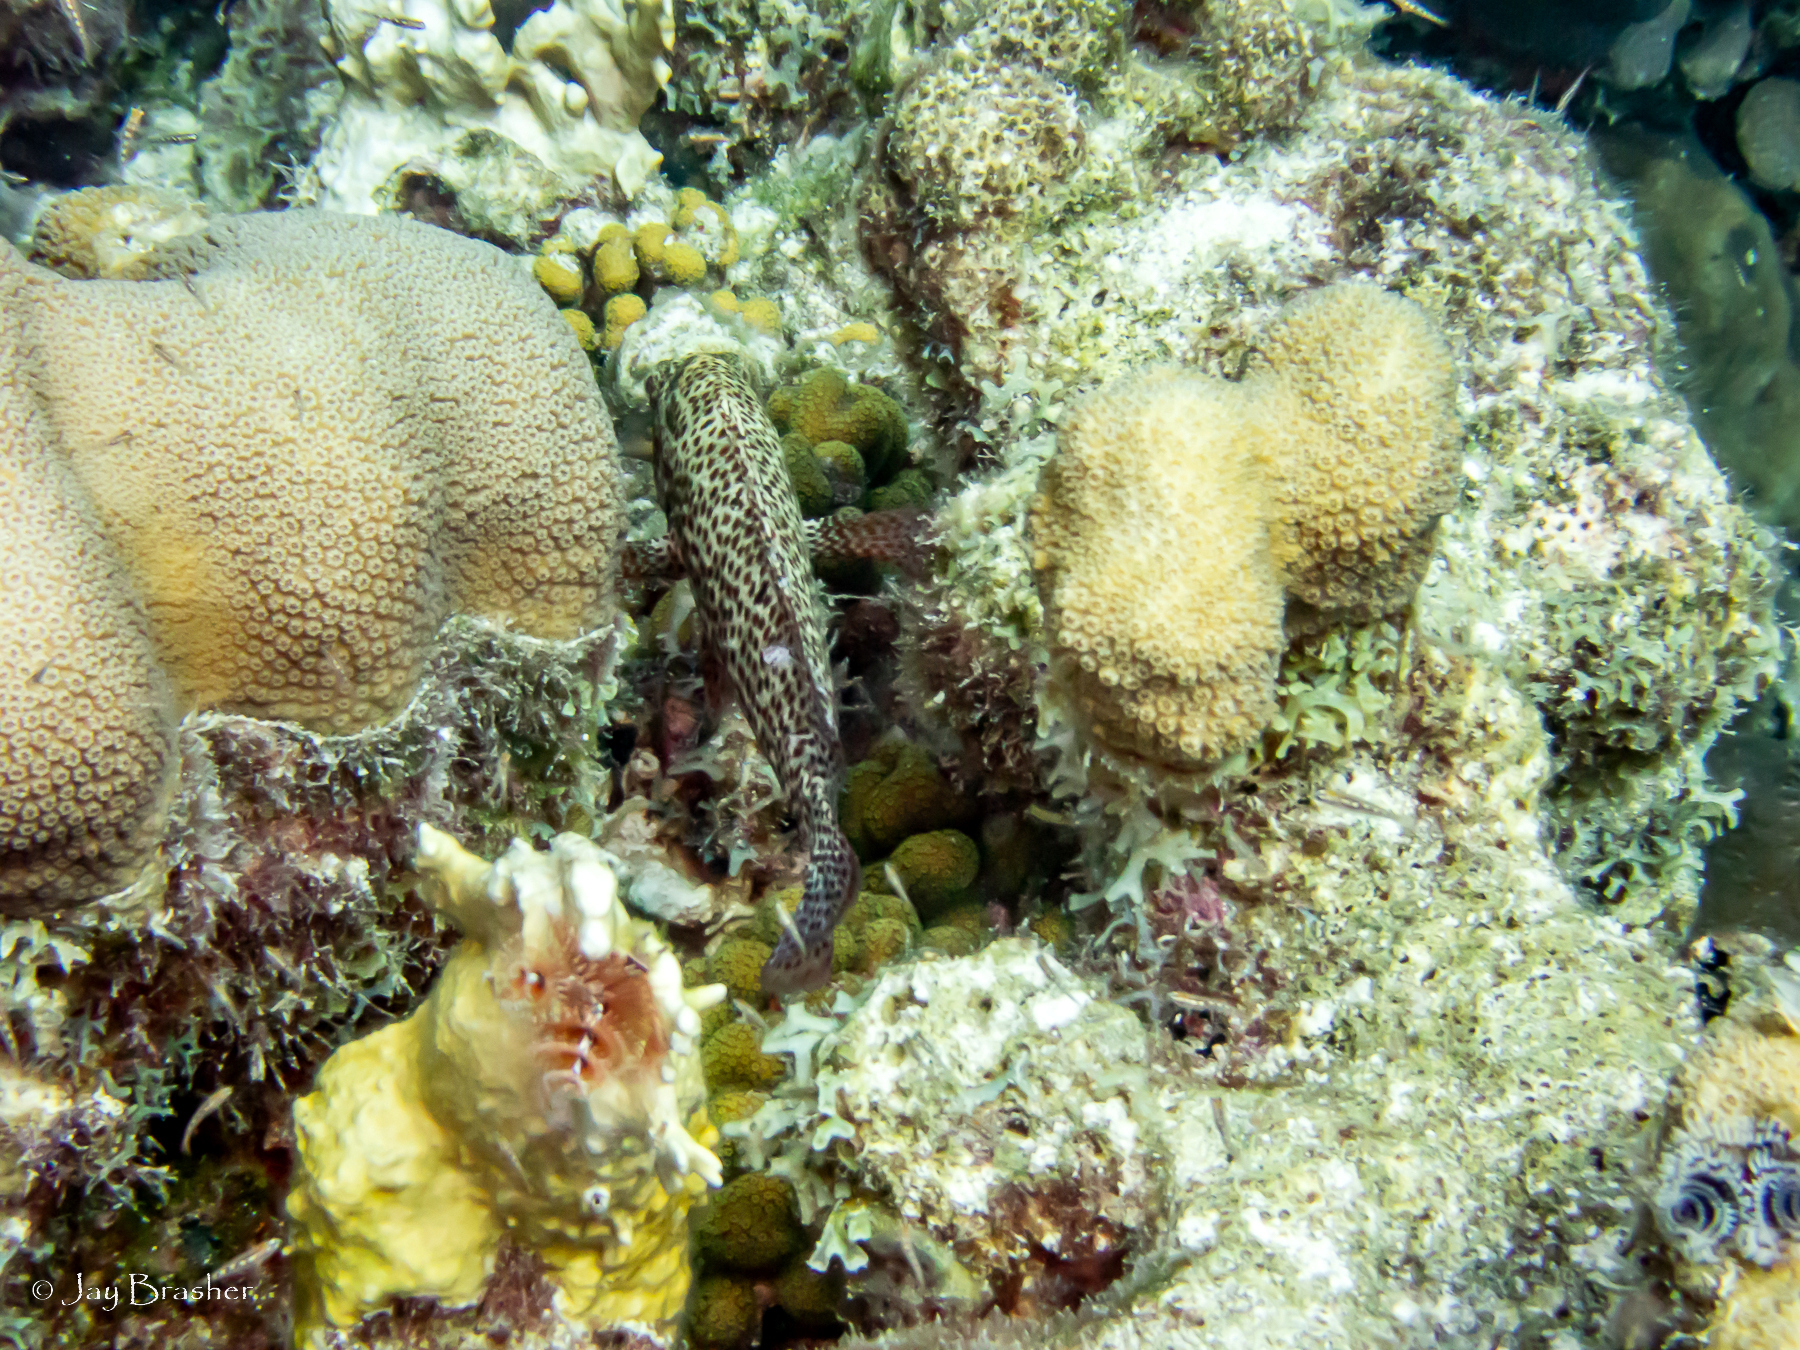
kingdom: Animalia
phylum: Annelida
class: Polychaeta
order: Sabellida
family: Serpulidae
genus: Spirobranchus
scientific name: Spirobranchus giganteus
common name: Christmas tree worm
